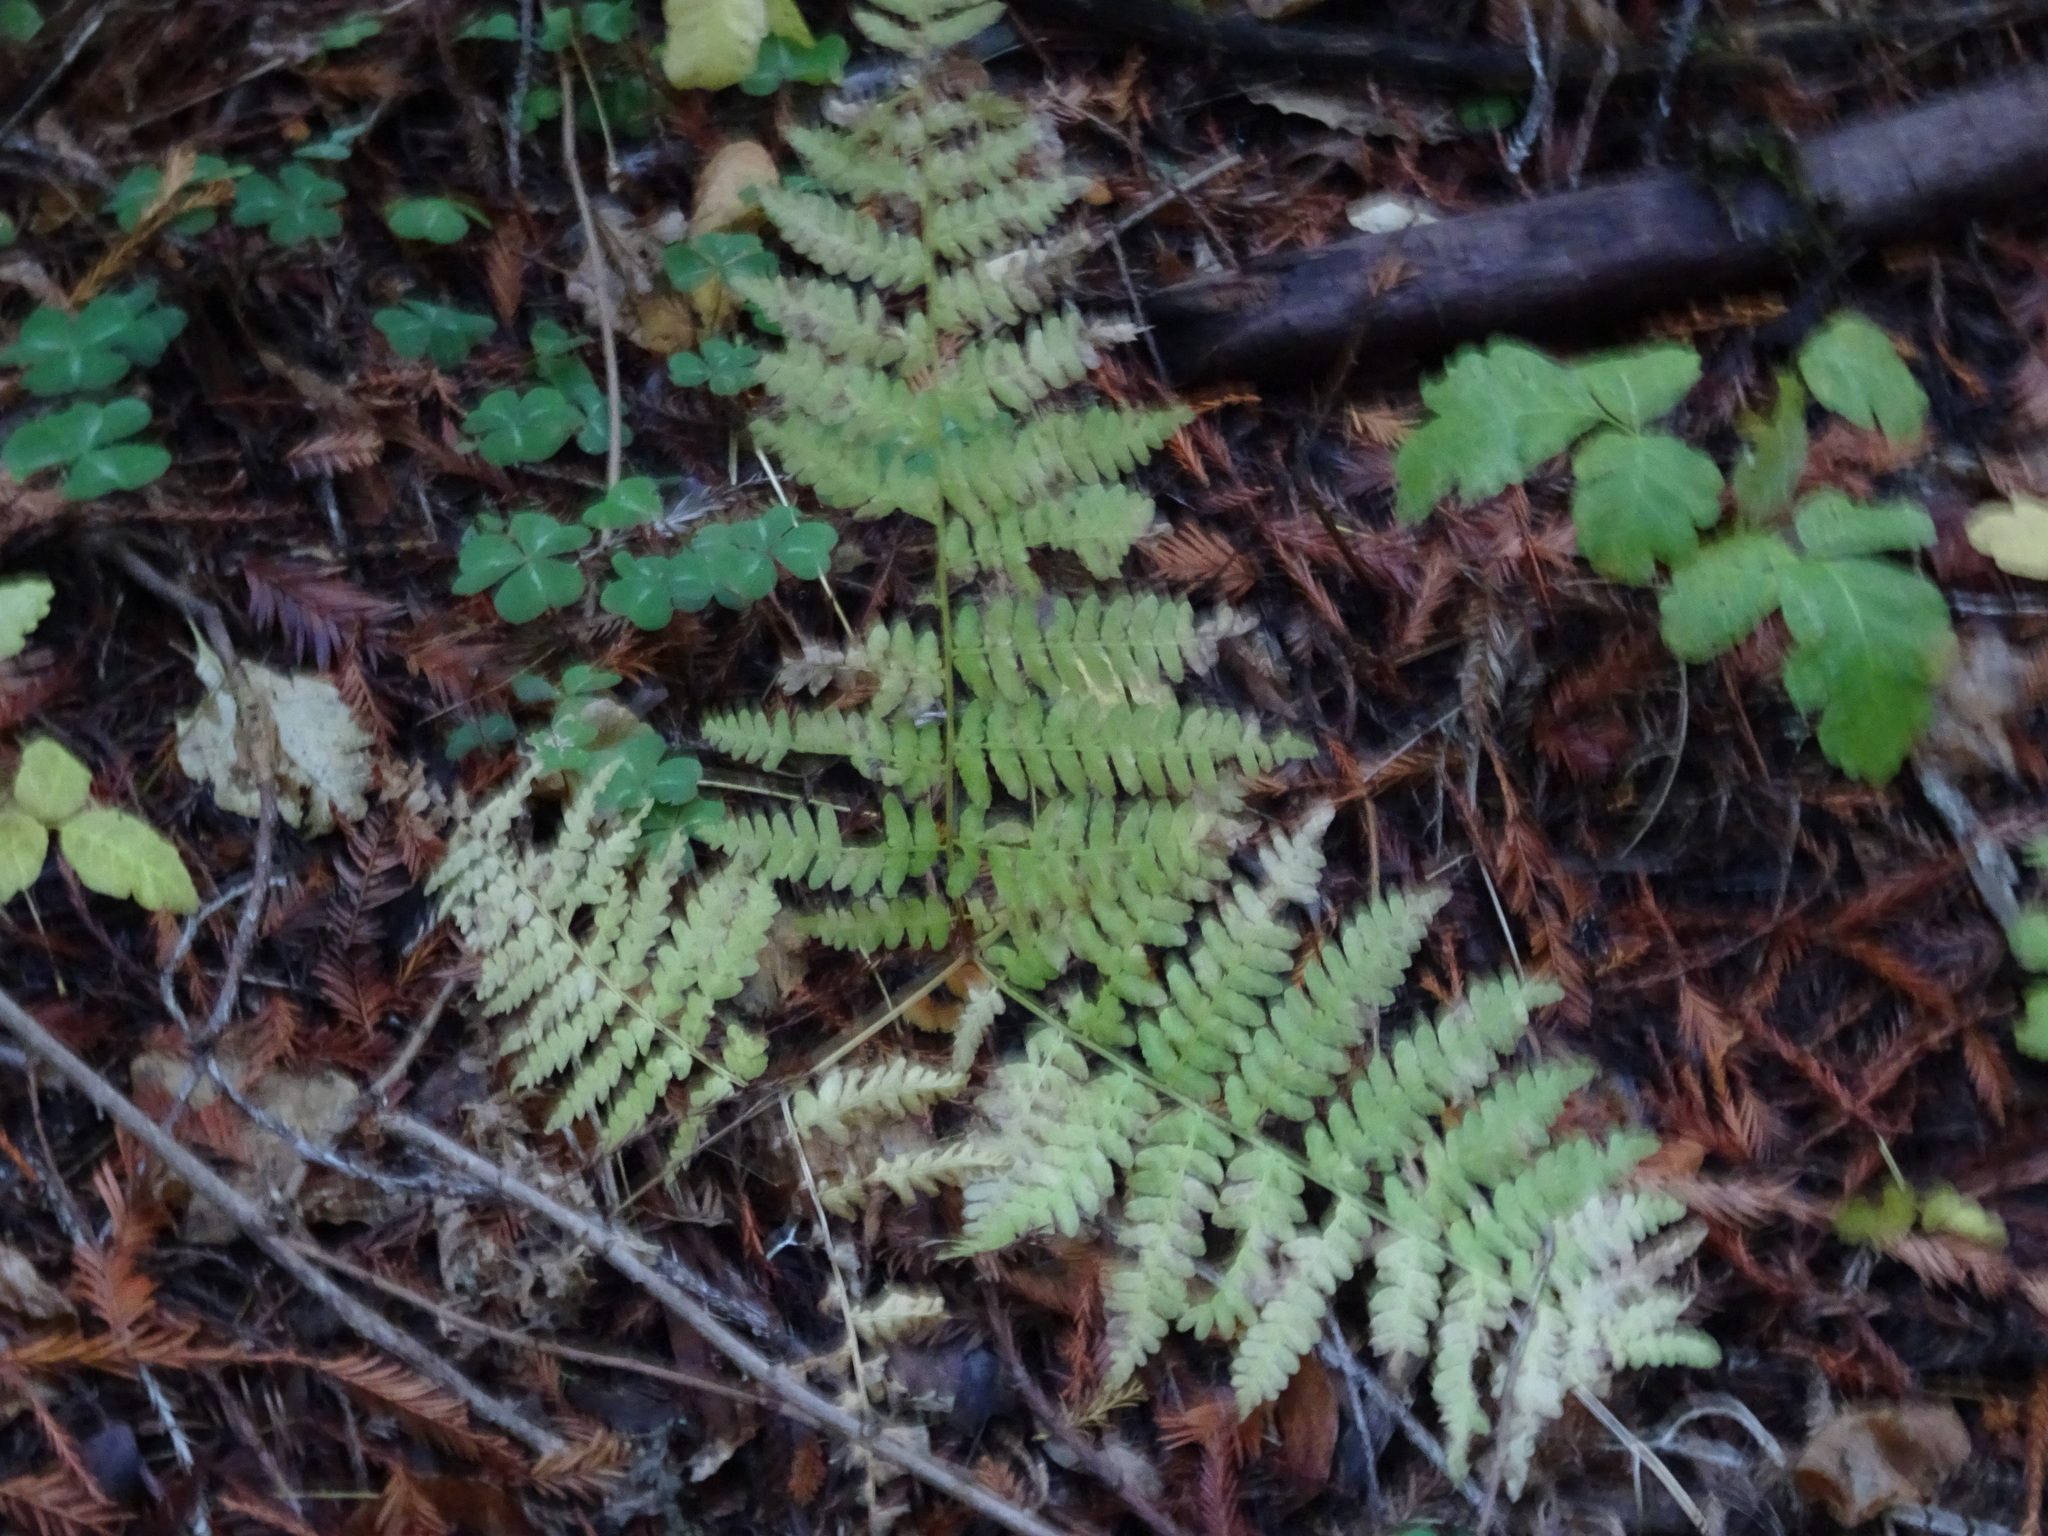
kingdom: Plantae
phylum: Tracheophyta
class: Polypodiopsida
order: Polypodiales
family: Dennstaedtiaceae
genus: Pteridium
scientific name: Pteridium aquilinum
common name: Bracken
